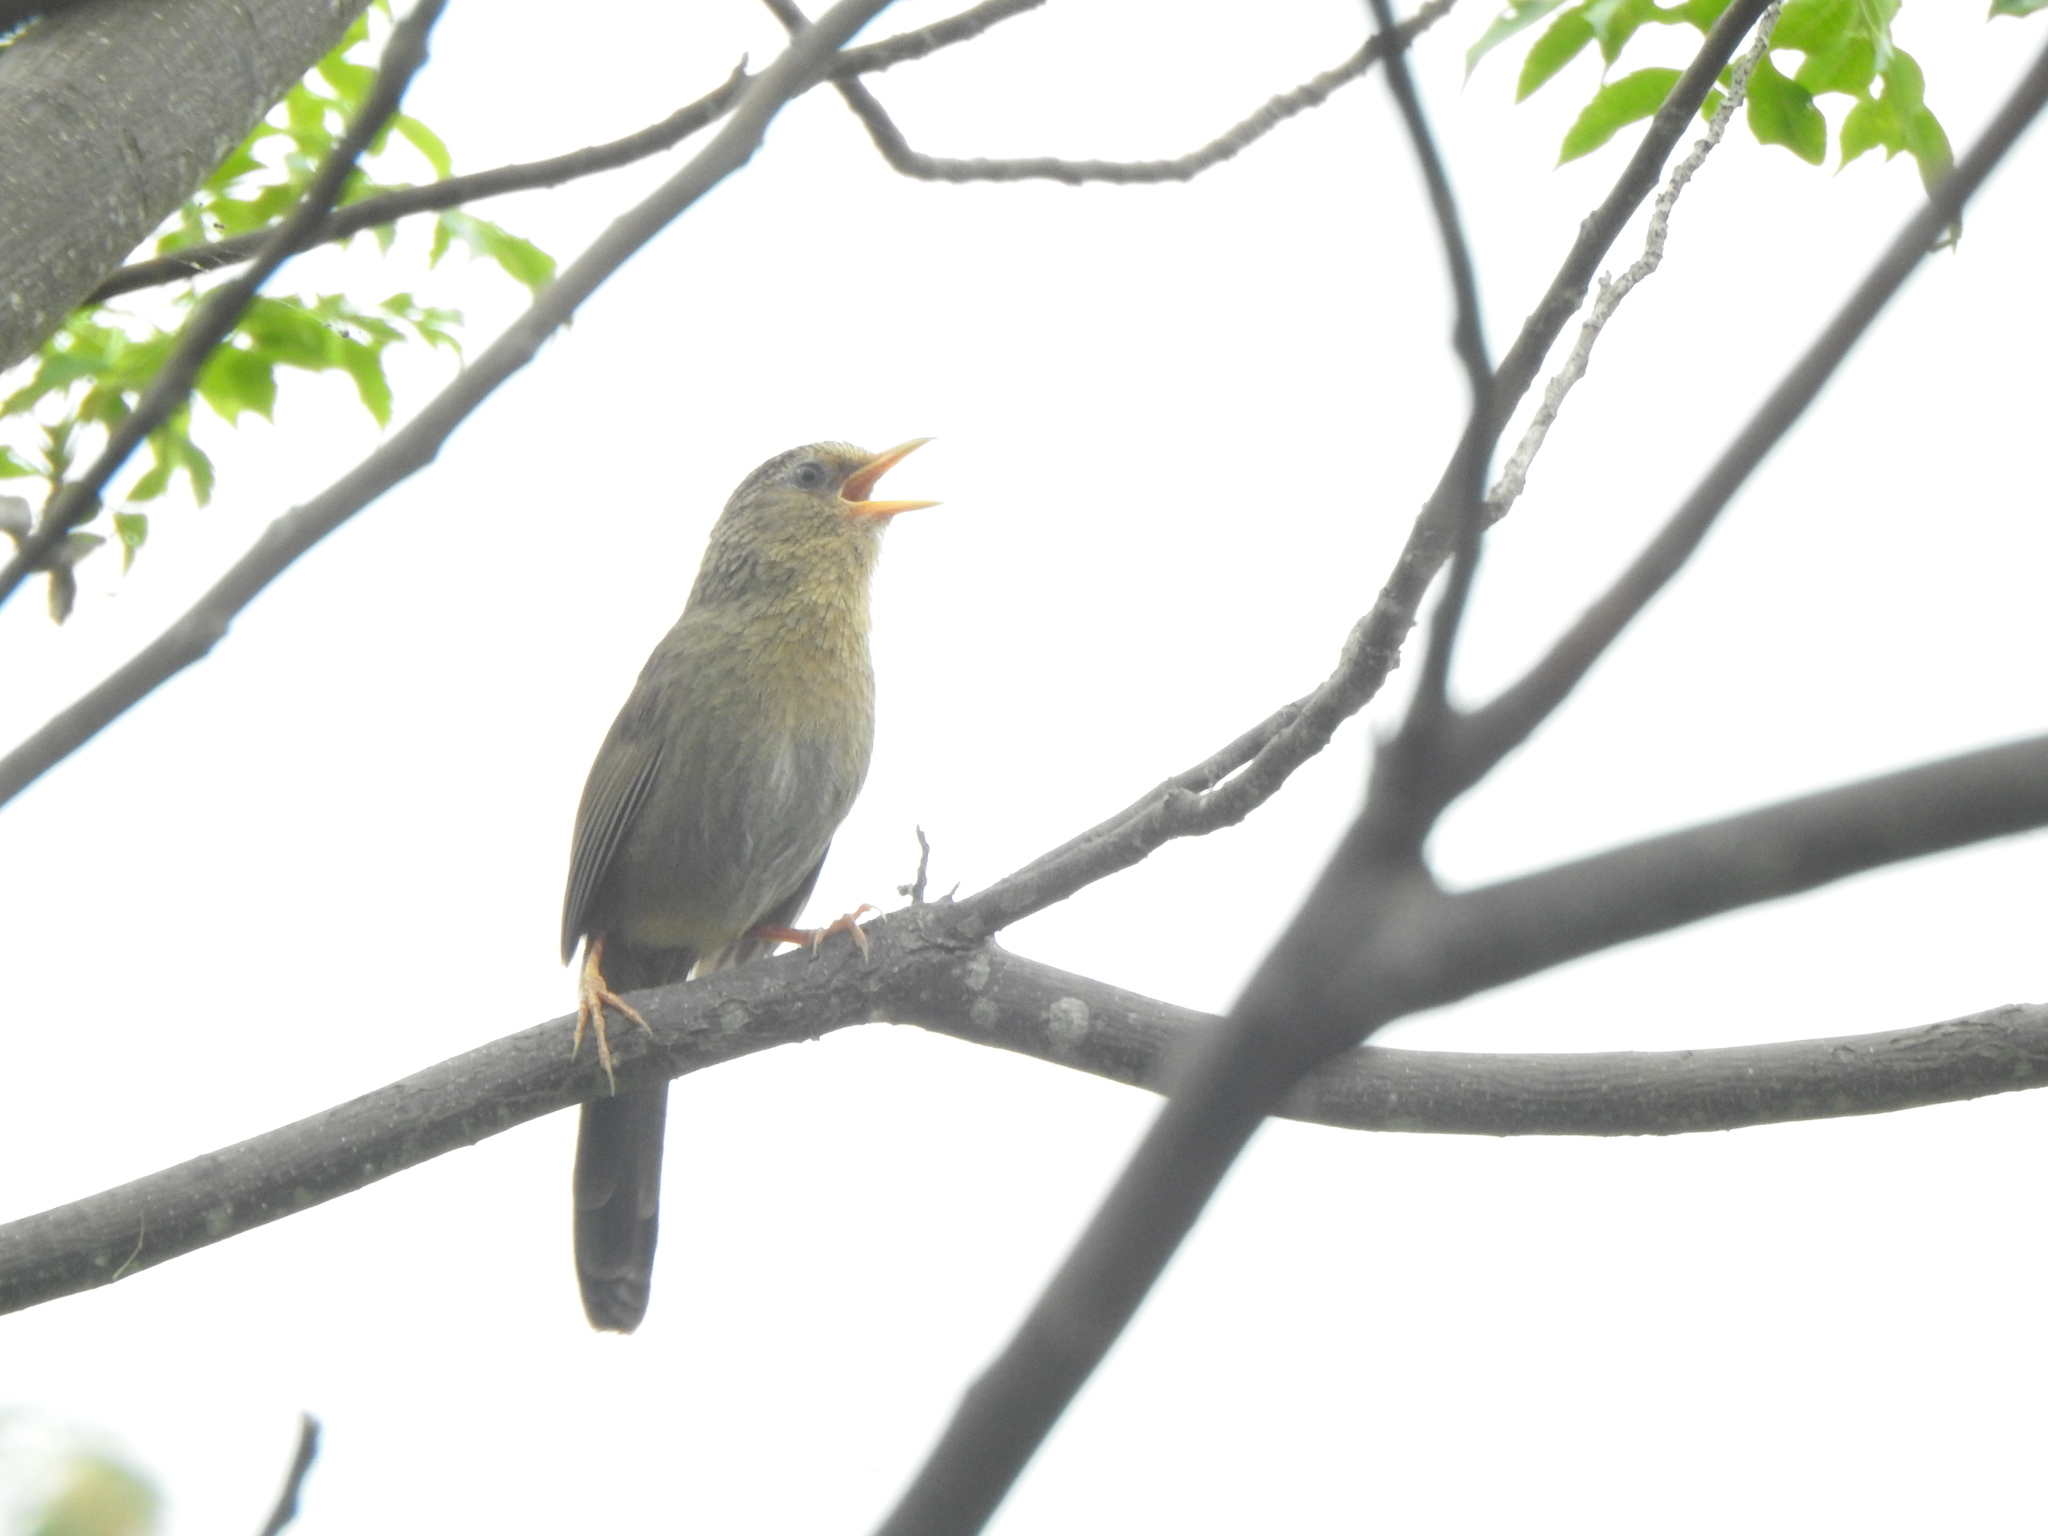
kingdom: Animalia
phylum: Chordata
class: Aves
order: Passeriformes
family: Leiothrichidae
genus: Garrulax
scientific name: Garrulax taewanus
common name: Taiwan hwamei
